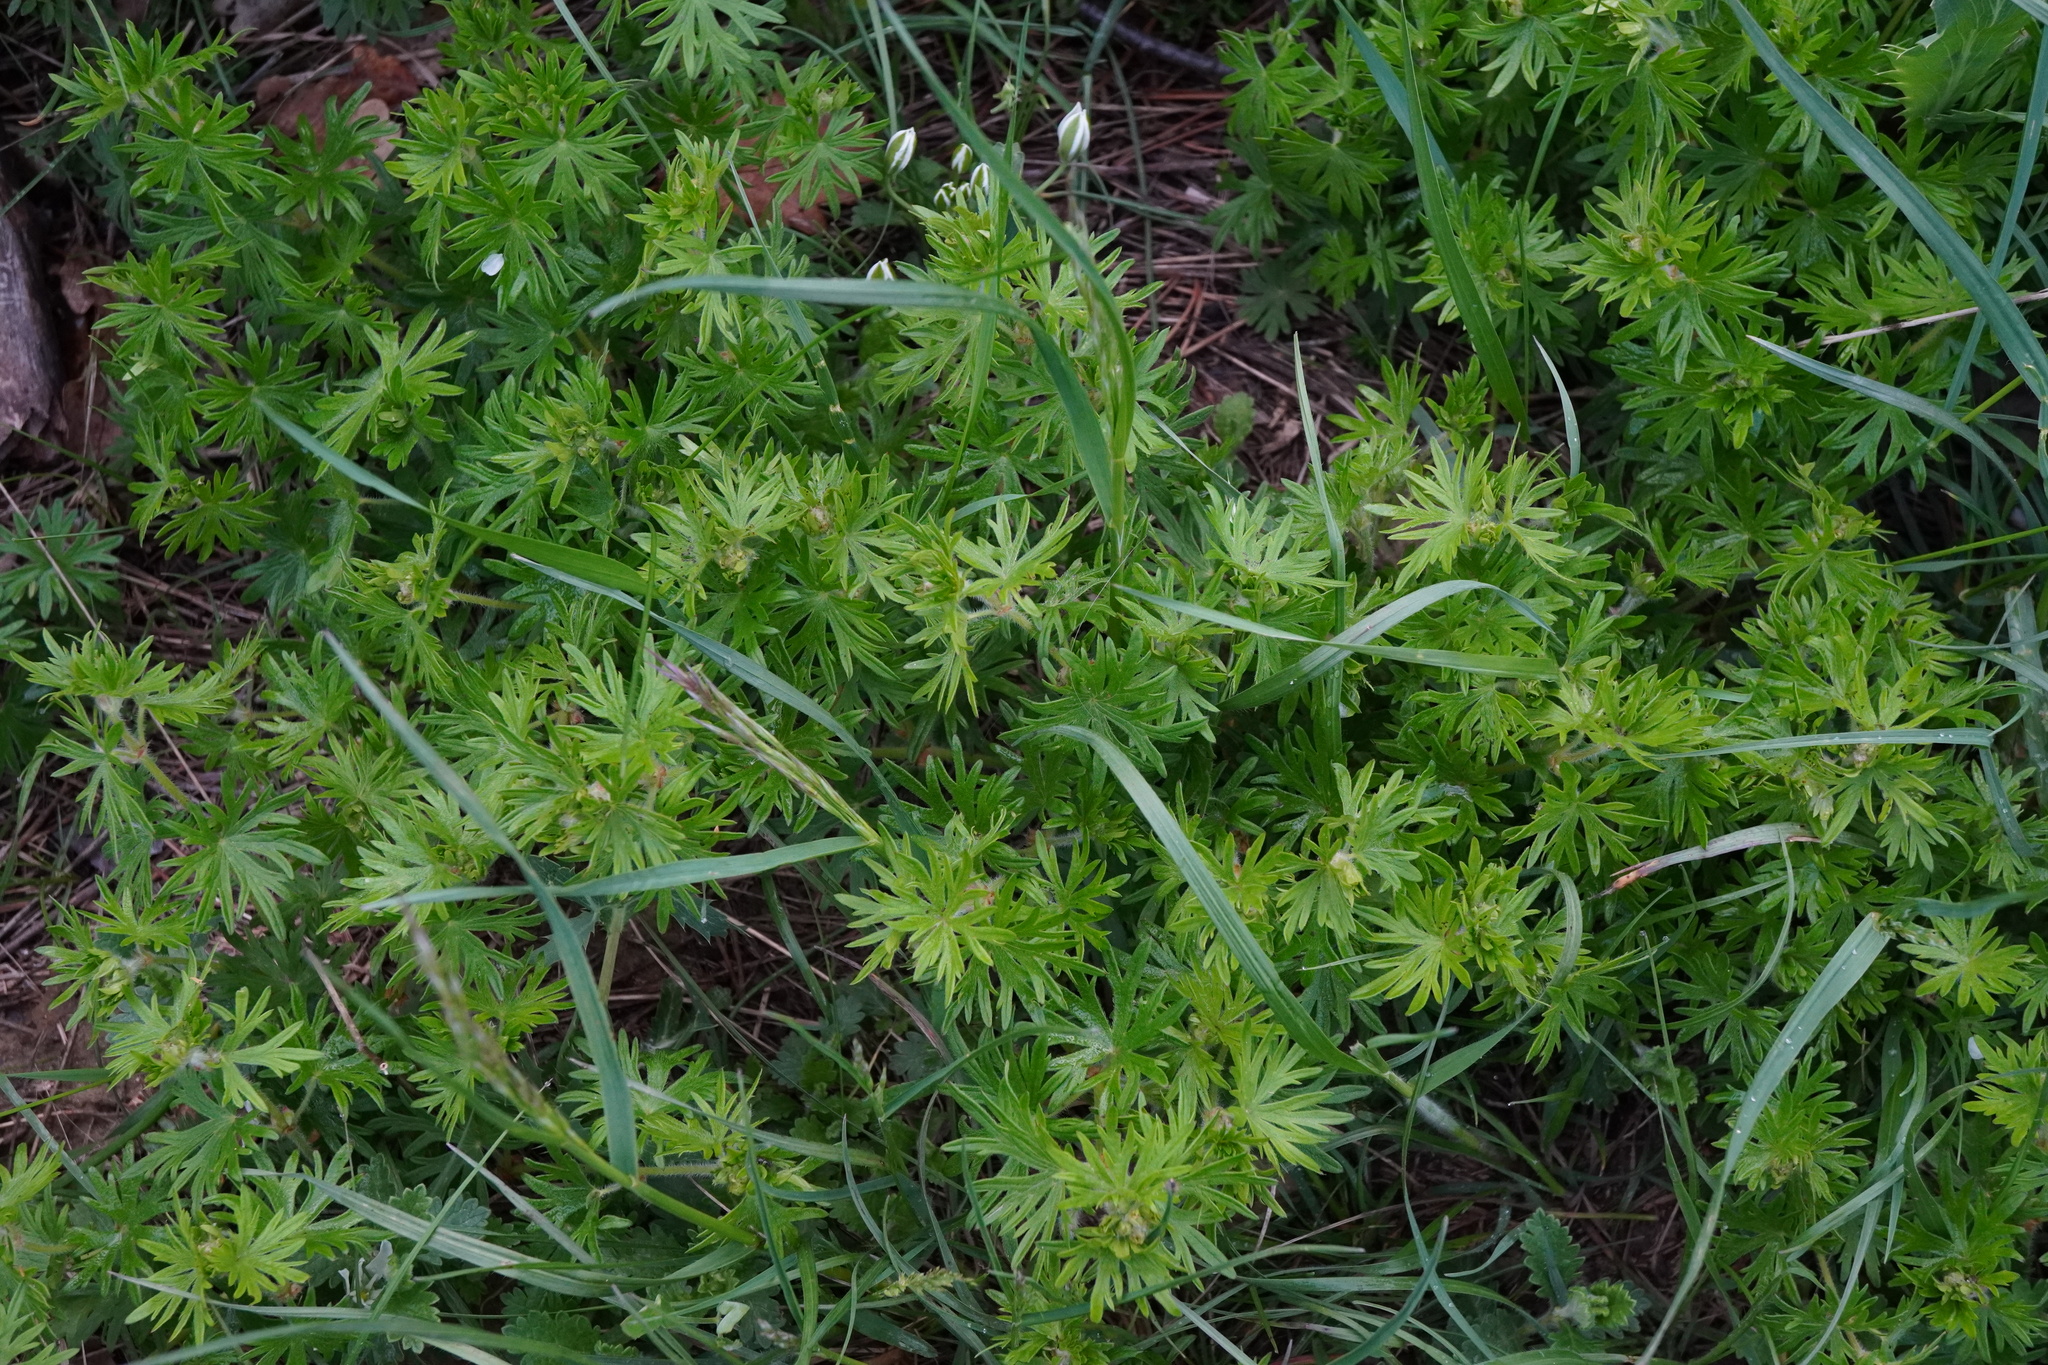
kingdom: Plantae
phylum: Tracheophyta
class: Magnoliopsida
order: Geraniales
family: Geraniaceae
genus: Geranium
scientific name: Geranium sanguineum
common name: Bloody crane's-bill
